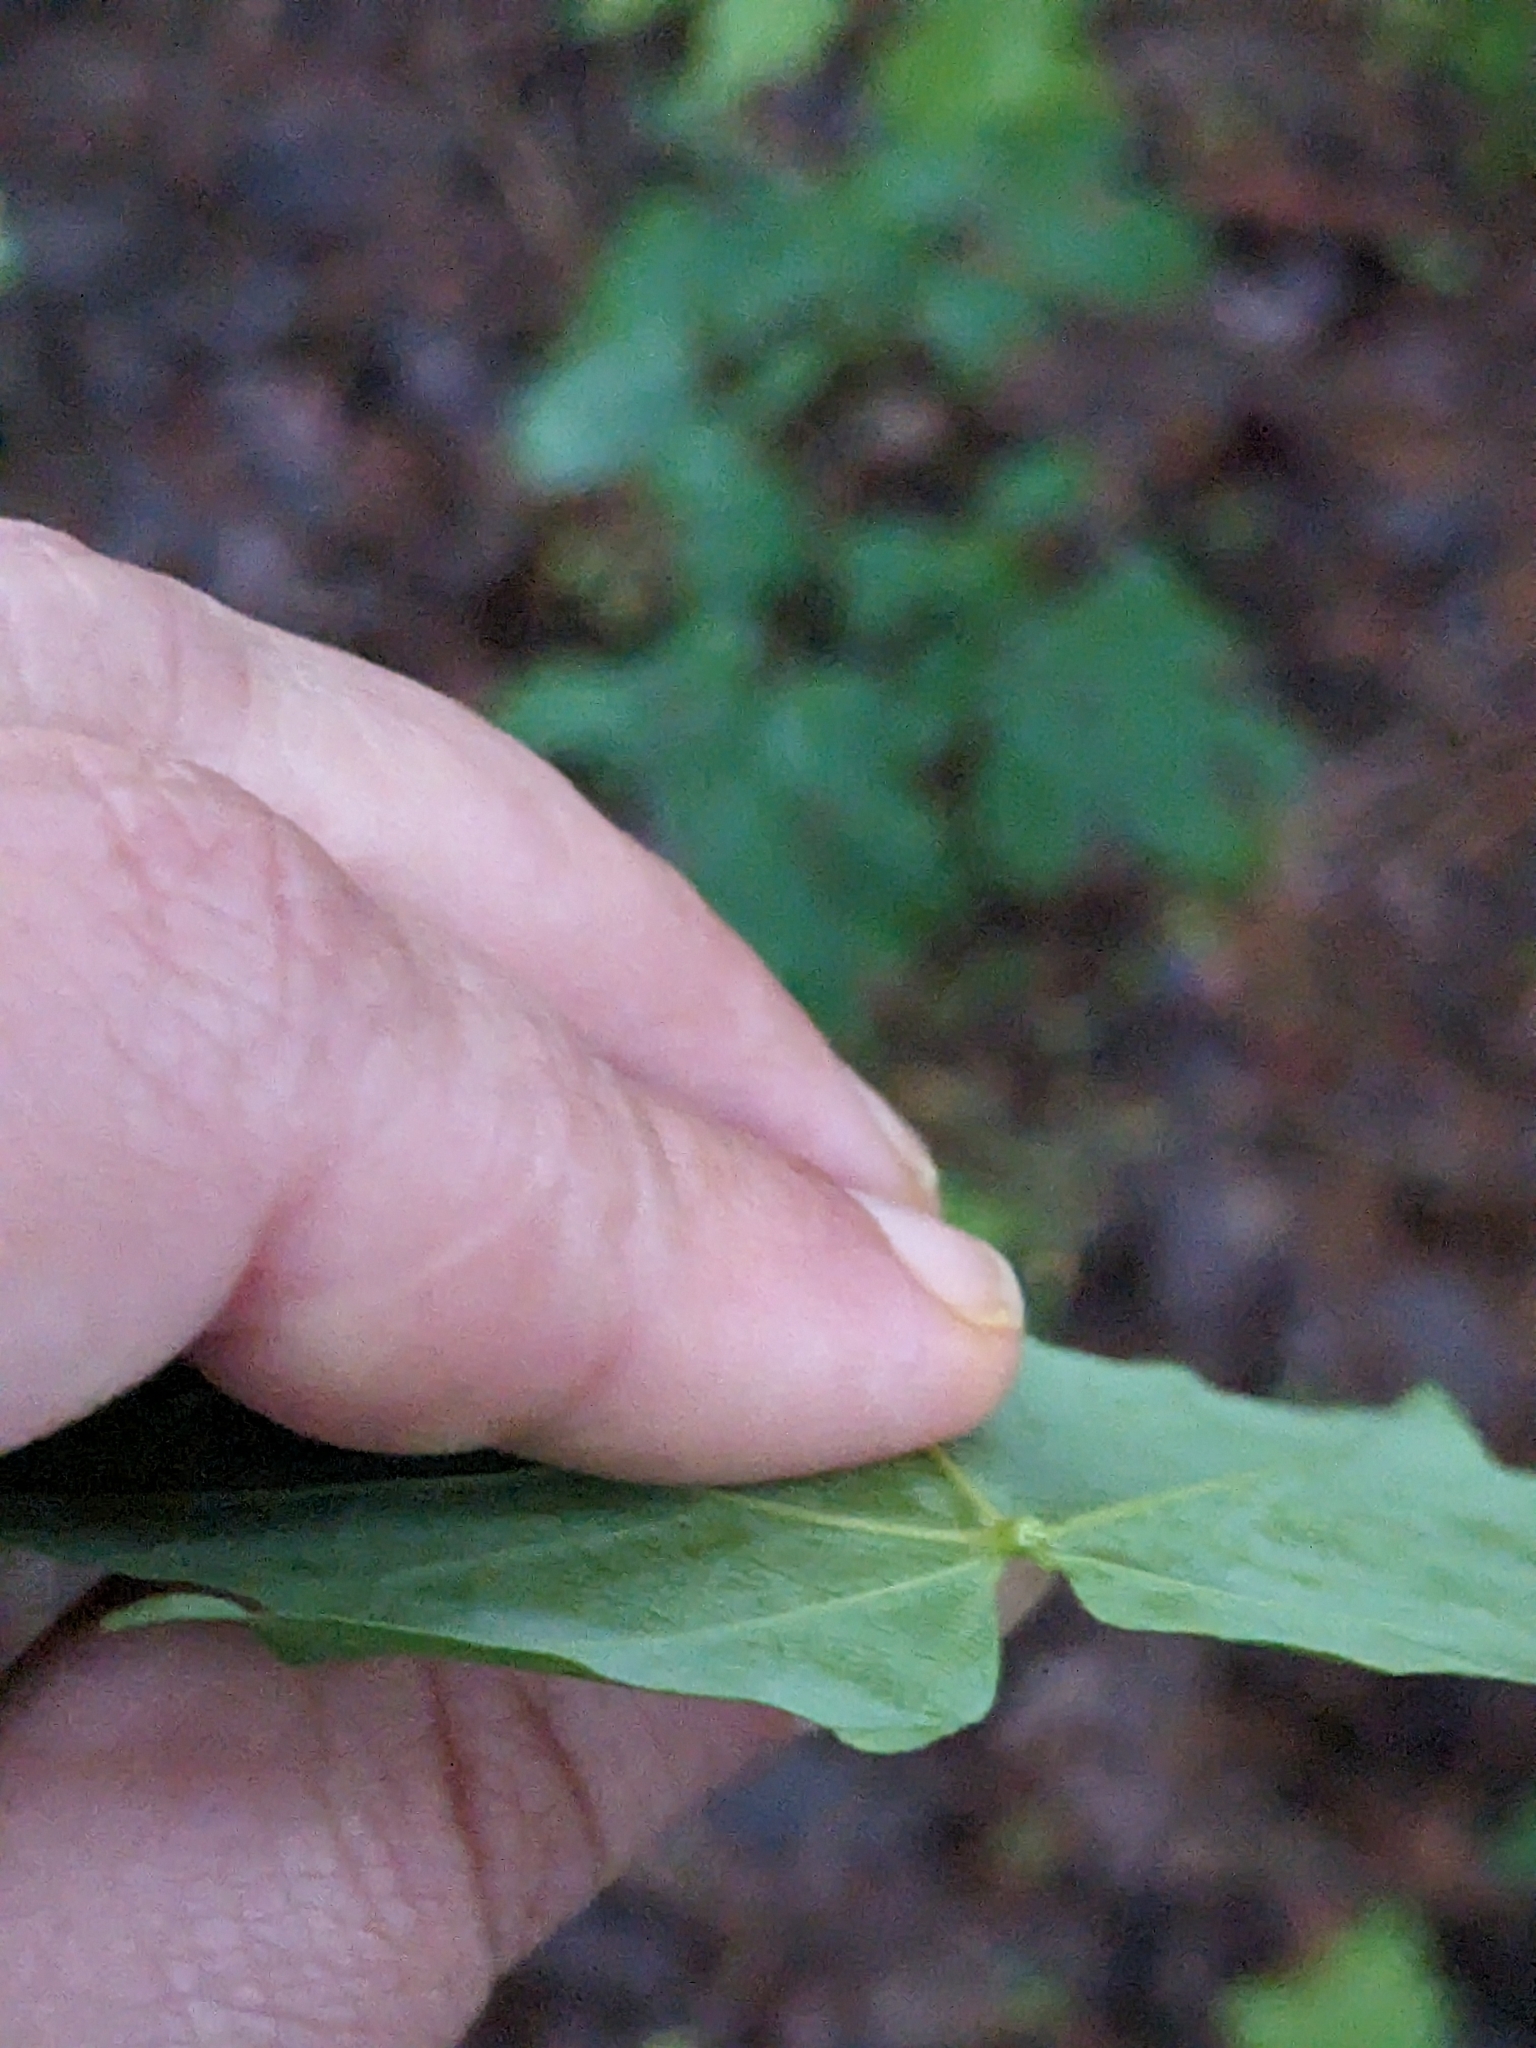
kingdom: Plantae
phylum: Tracheophyta
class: Magnoliopsida
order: Sapindales
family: Sapindaceae
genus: Acer
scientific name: Acer saccharum
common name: Sugar maple
